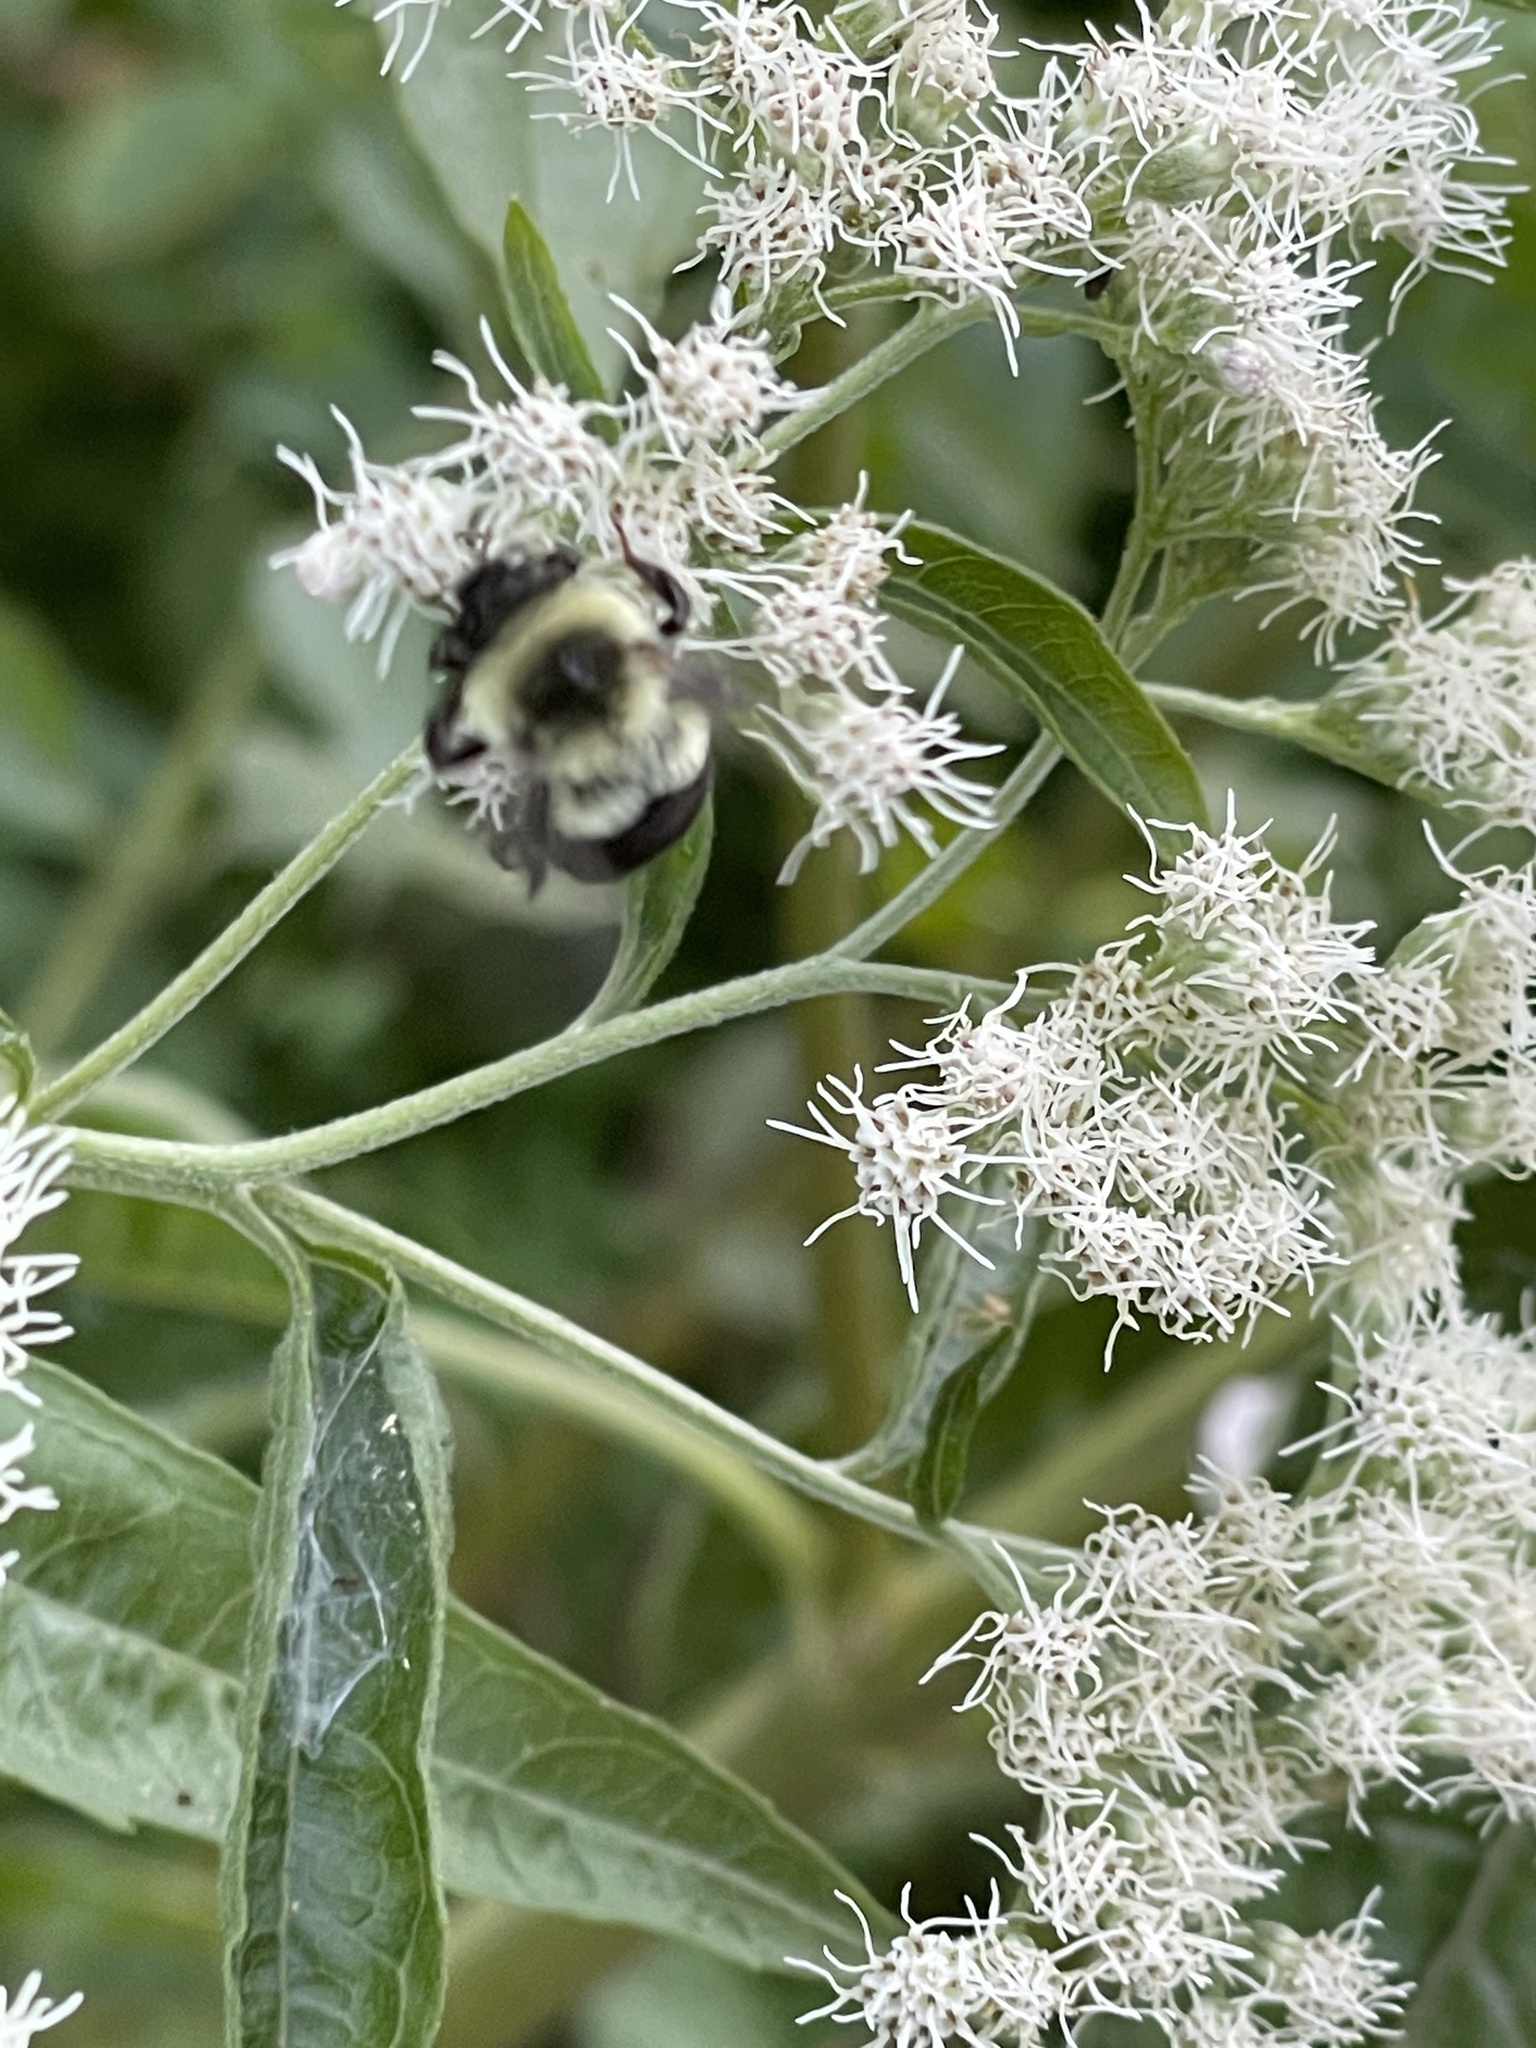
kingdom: Animalia
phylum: Arthropoda
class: Insecta
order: Hymenoptera
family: Apidae
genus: Bombus
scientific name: Bombus impatiens
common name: Common eastern bumble bee
